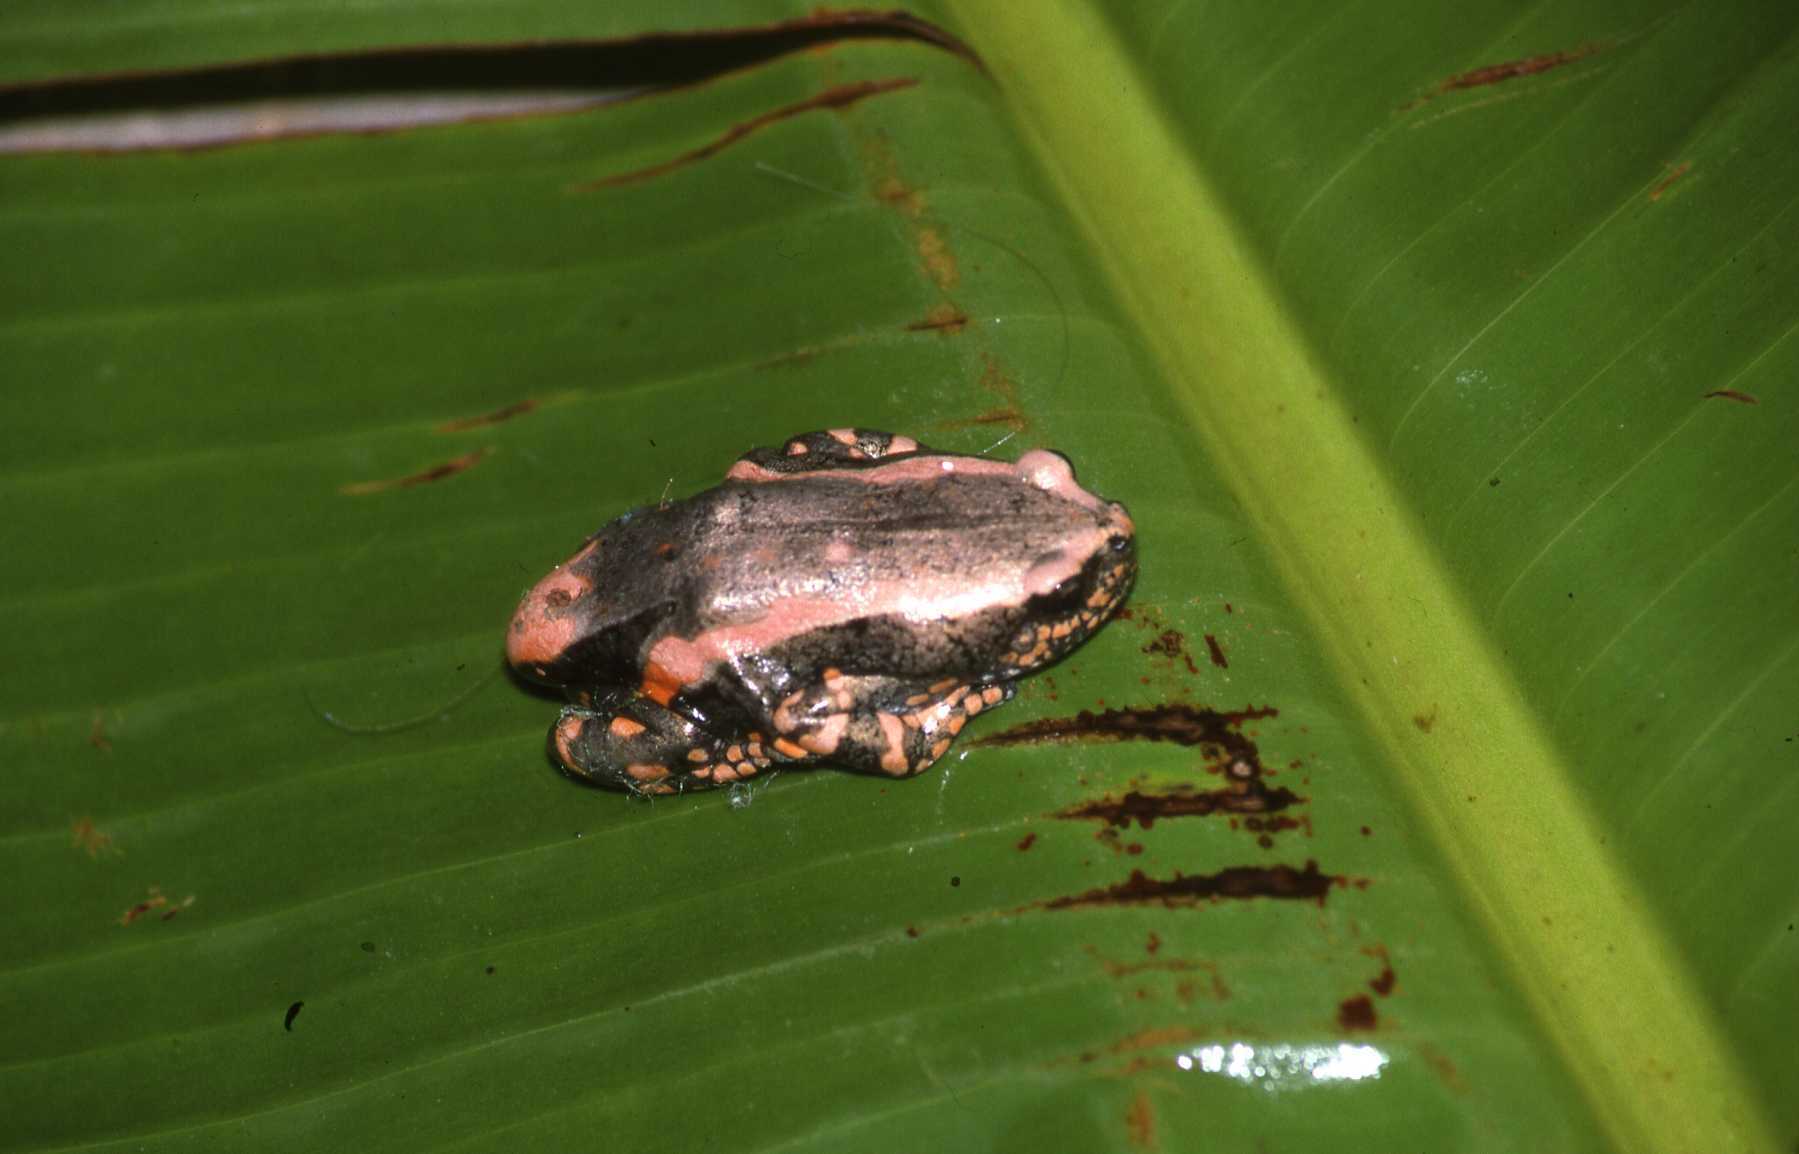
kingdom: Animalia
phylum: Chordata
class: Amphibia
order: Anura
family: Microhylidae
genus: Phrynomantis
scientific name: Phrynomantis bifasciatus
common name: Banded rubber frog
